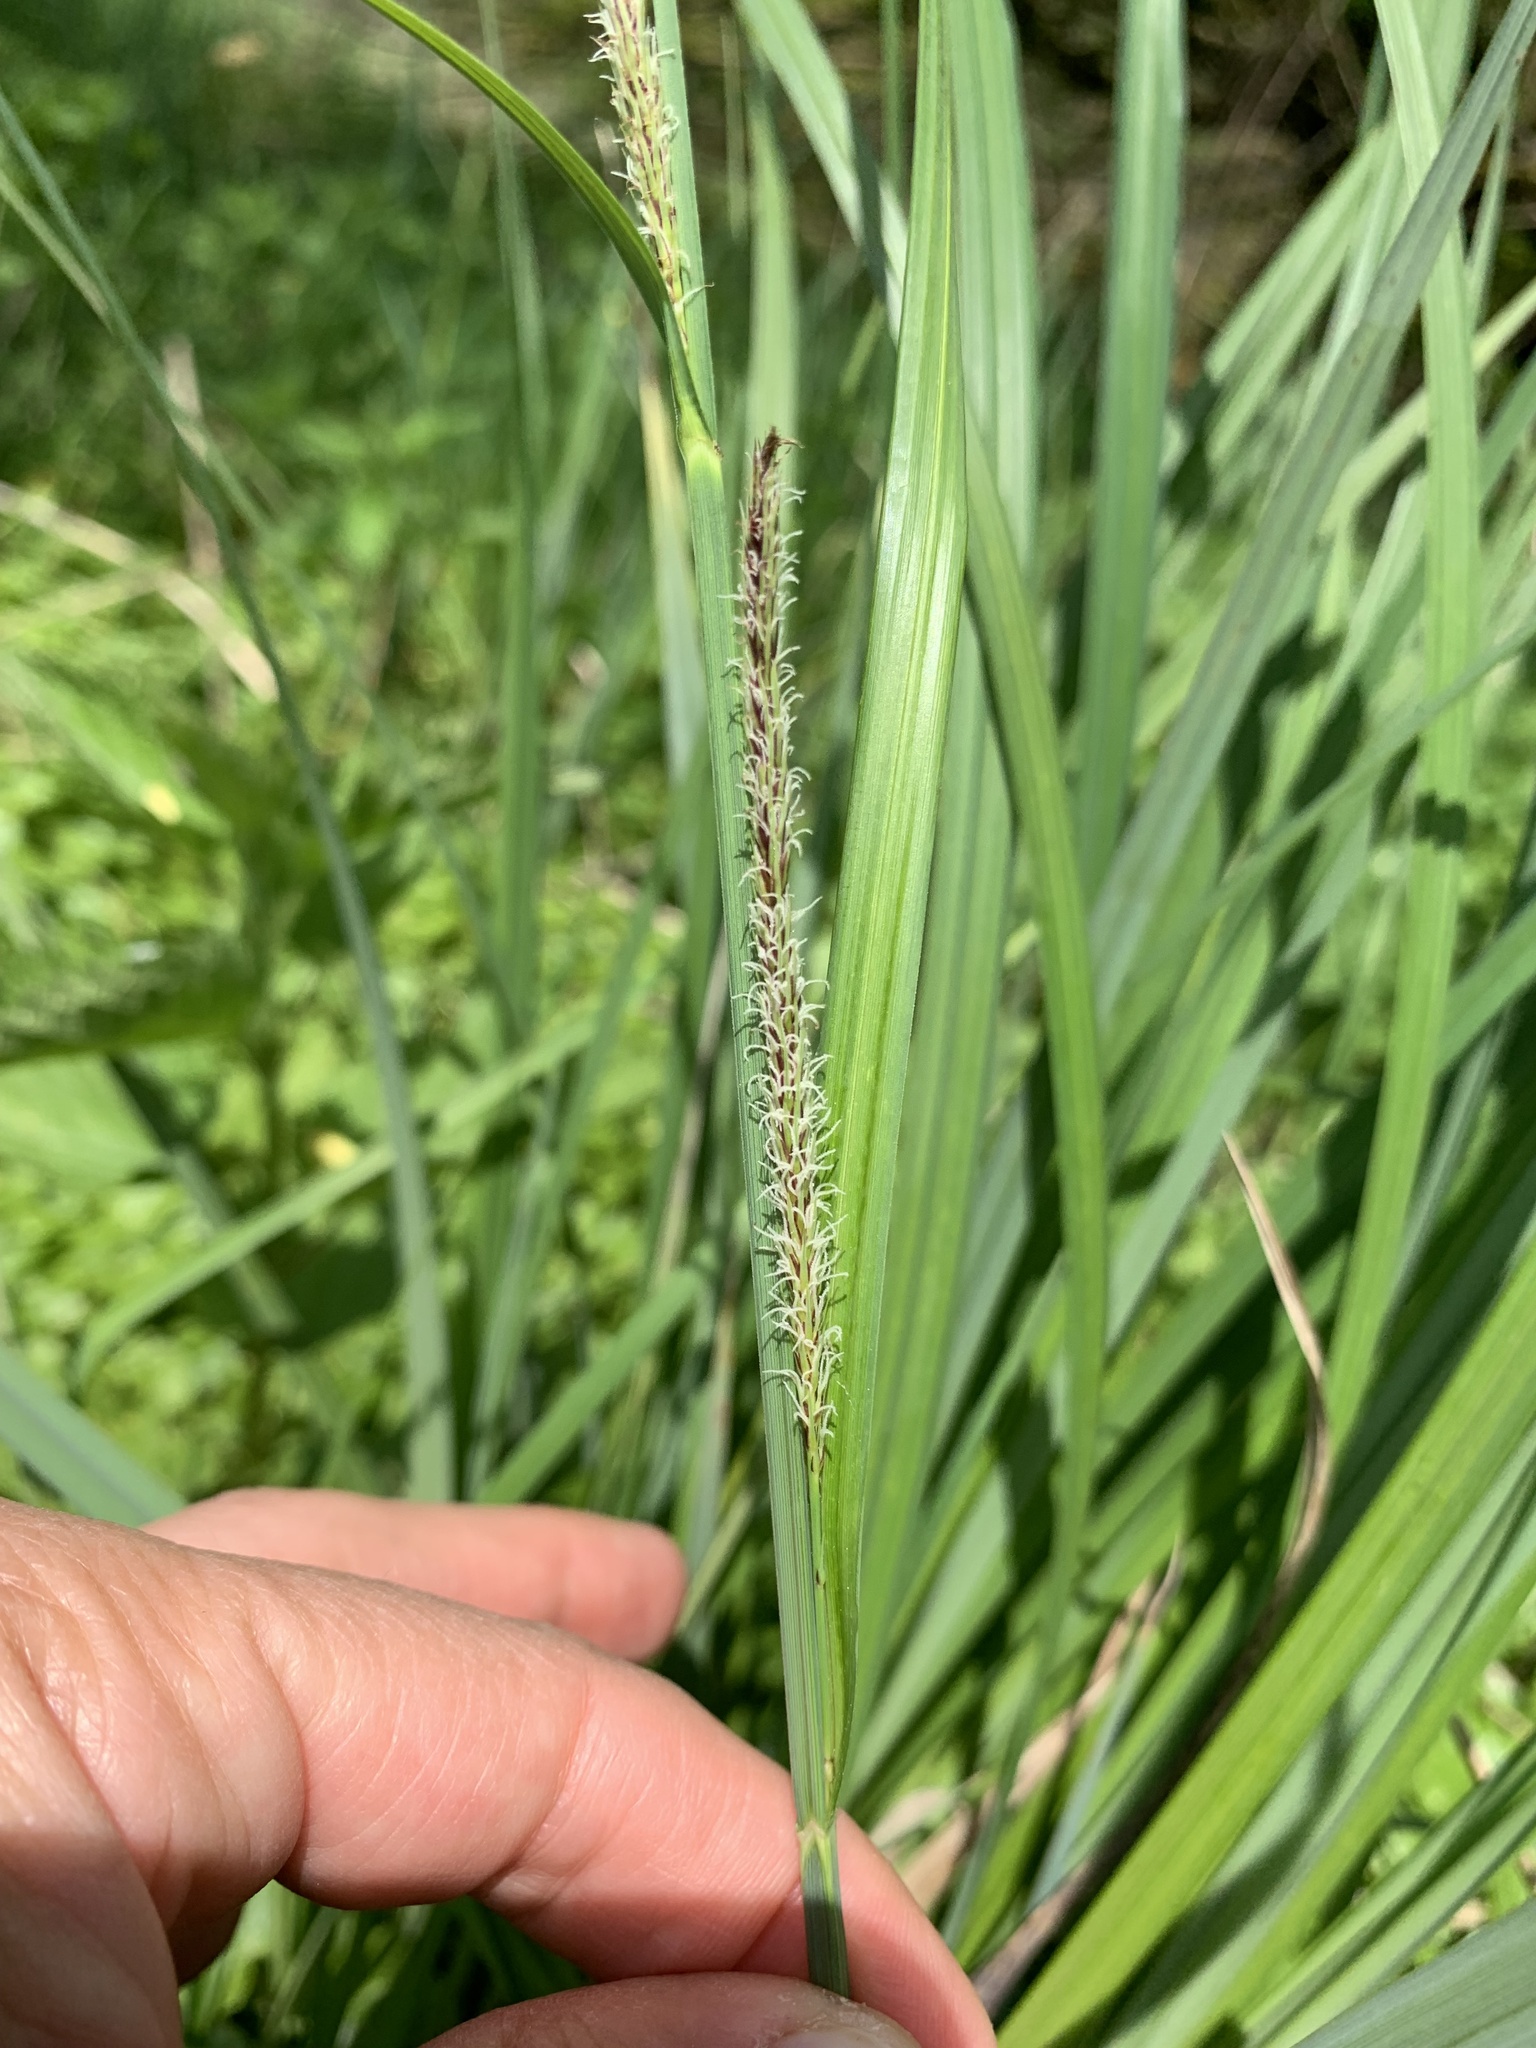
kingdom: Plantae
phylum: Tracheophyta
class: Liliopsida
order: Poales
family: Cyperaceae
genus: Carex
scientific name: Carex acutiformis
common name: Lesser pond-sedge
